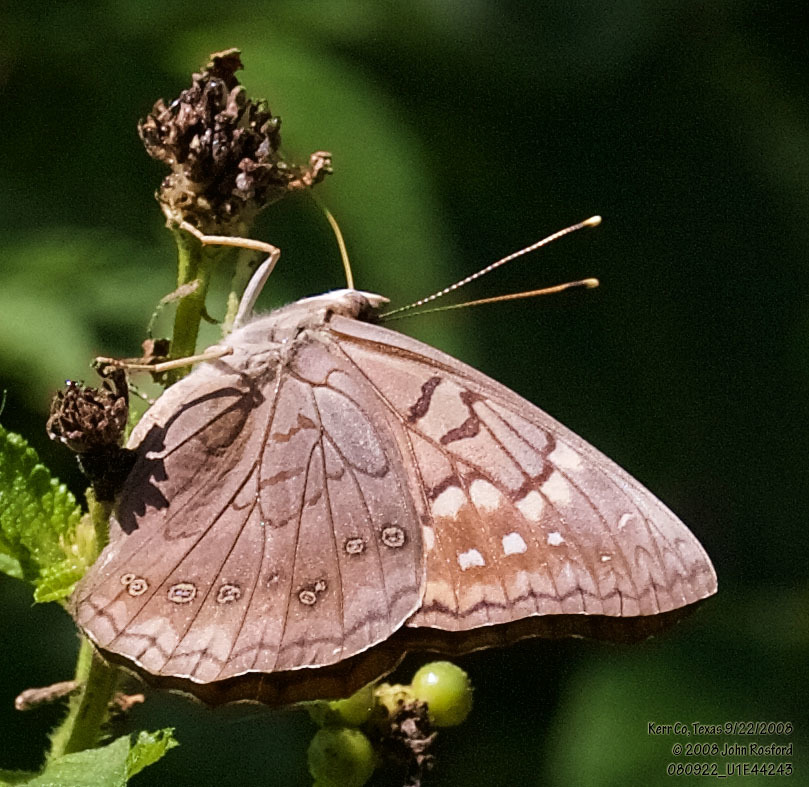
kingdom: Animalia
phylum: Arthropoda
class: Insecta
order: Lepidoptera
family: Nymphalidae
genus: Asterocampa
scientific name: Asterocampa clyton
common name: Tawny emperor
